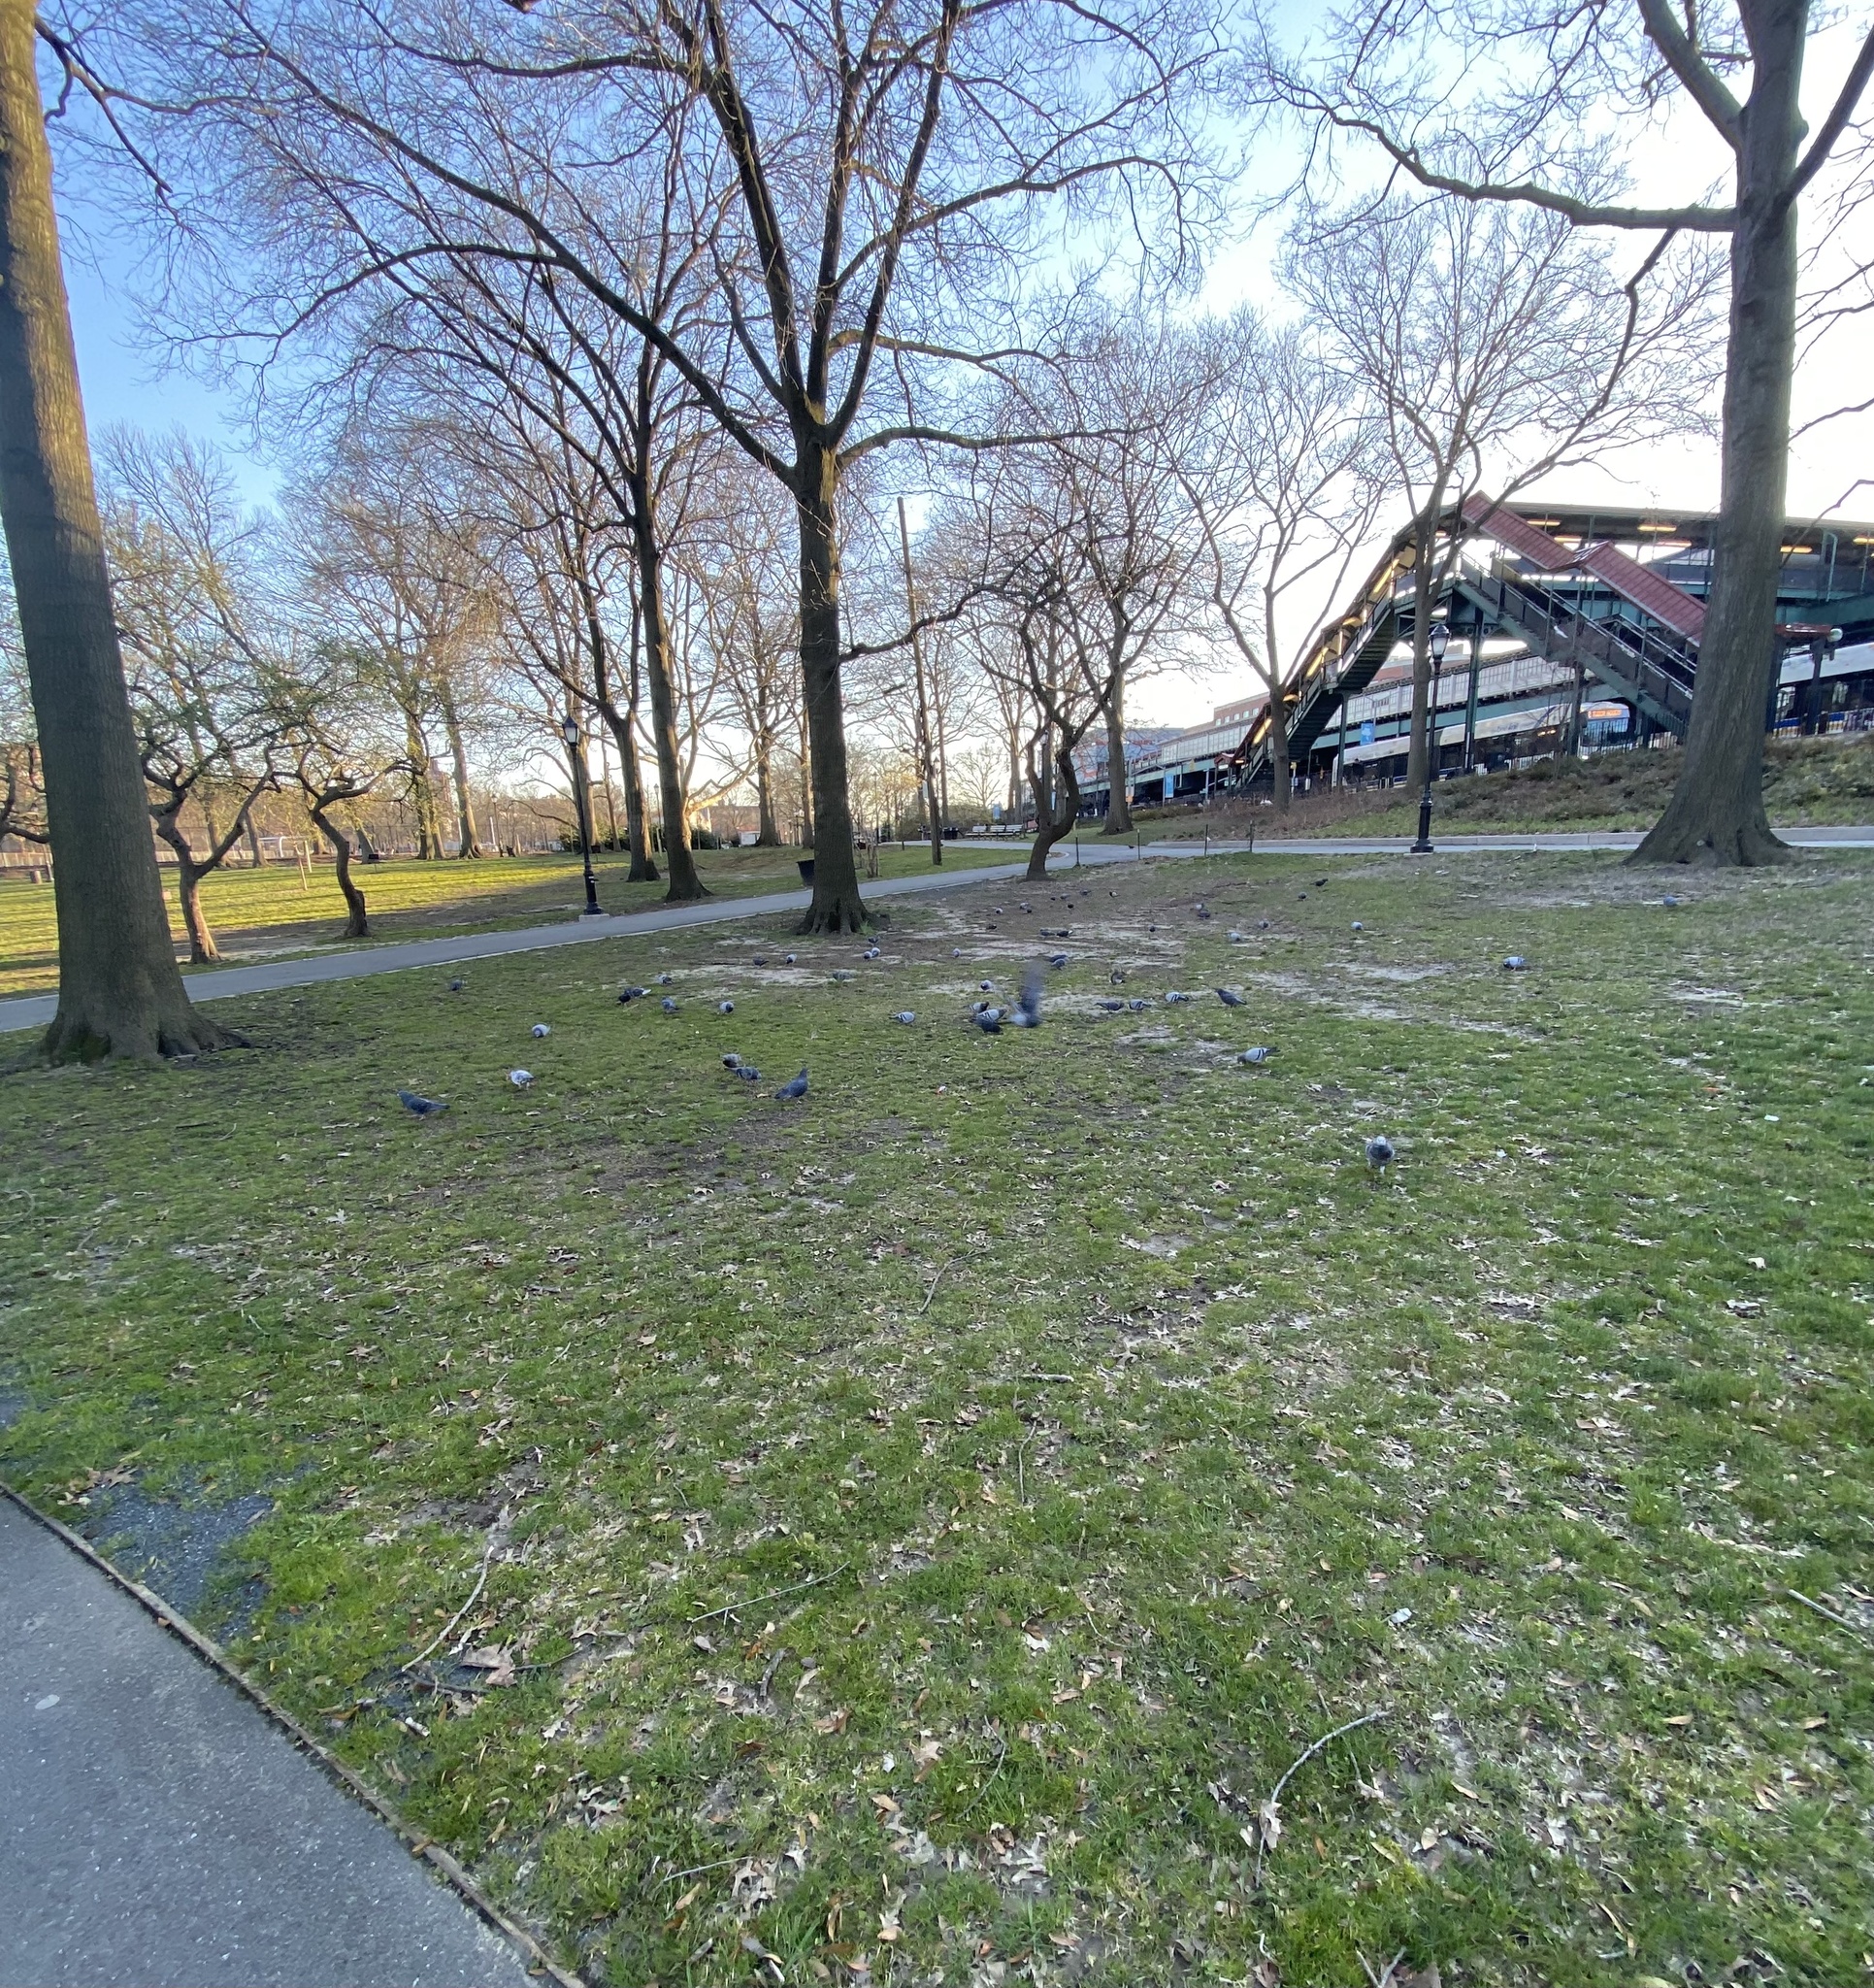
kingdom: Animalia
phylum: Chordata
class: Aves
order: Columbiformes
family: Columbidae
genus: Columba
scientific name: Columba livia
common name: Rock pigeon
